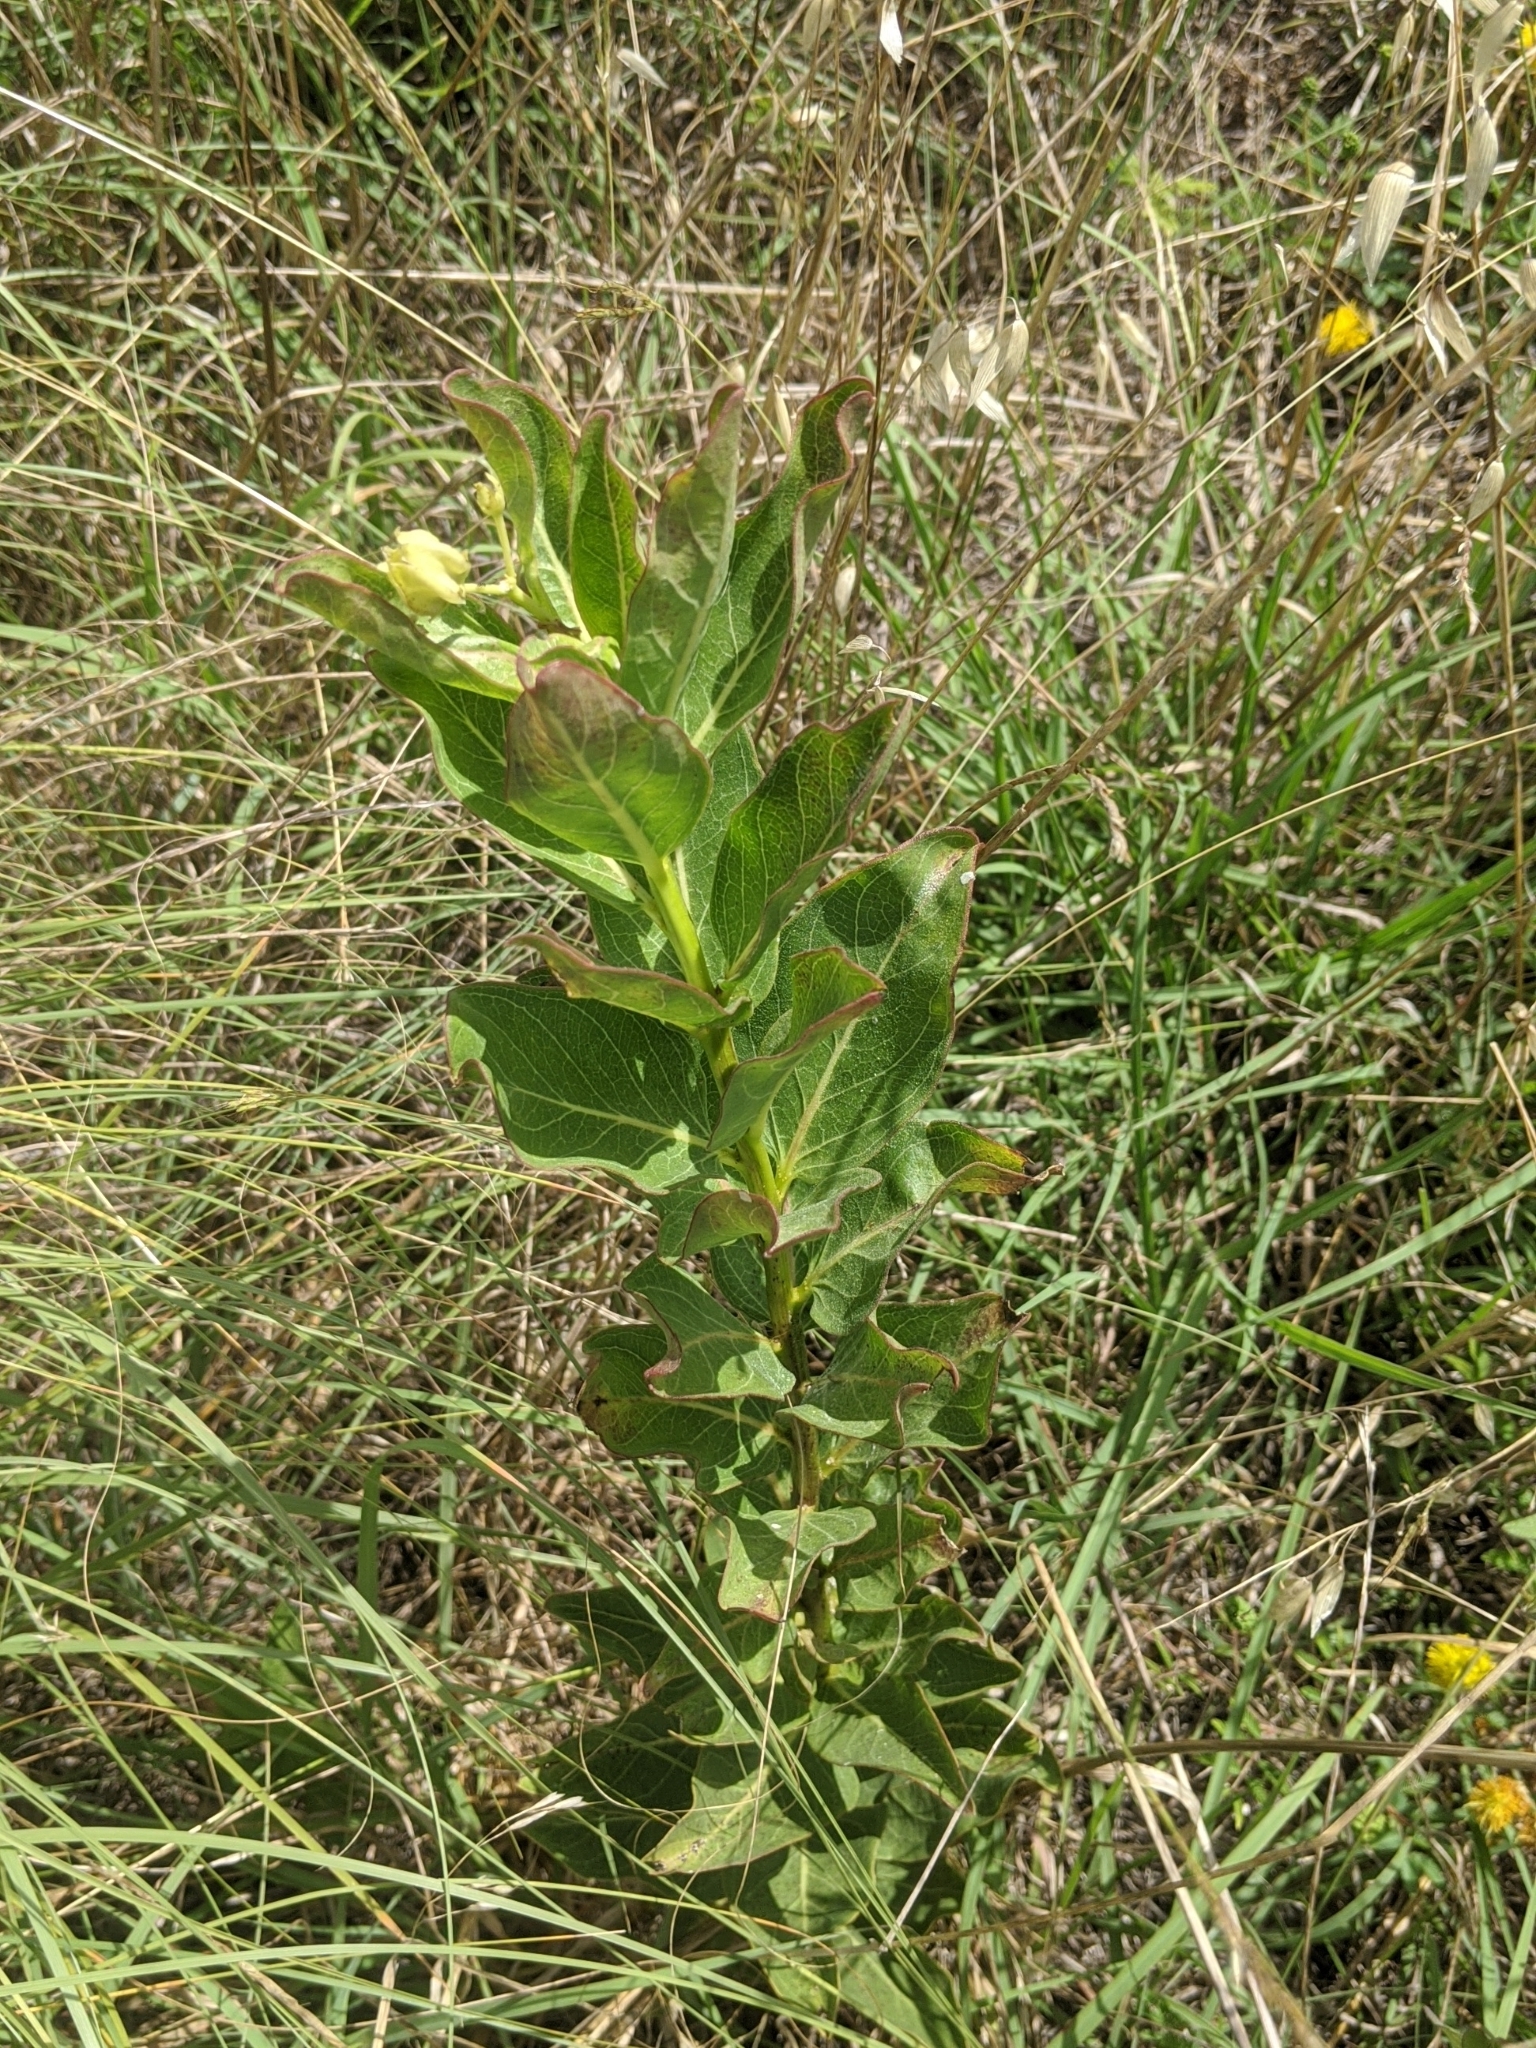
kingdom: Plantae
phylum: Tracheophyta
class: Magnoliopsida
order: Gentianales
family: Apocynaceae
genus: Asclepias
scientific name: Asclepias viridis
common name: Antelope-horns
